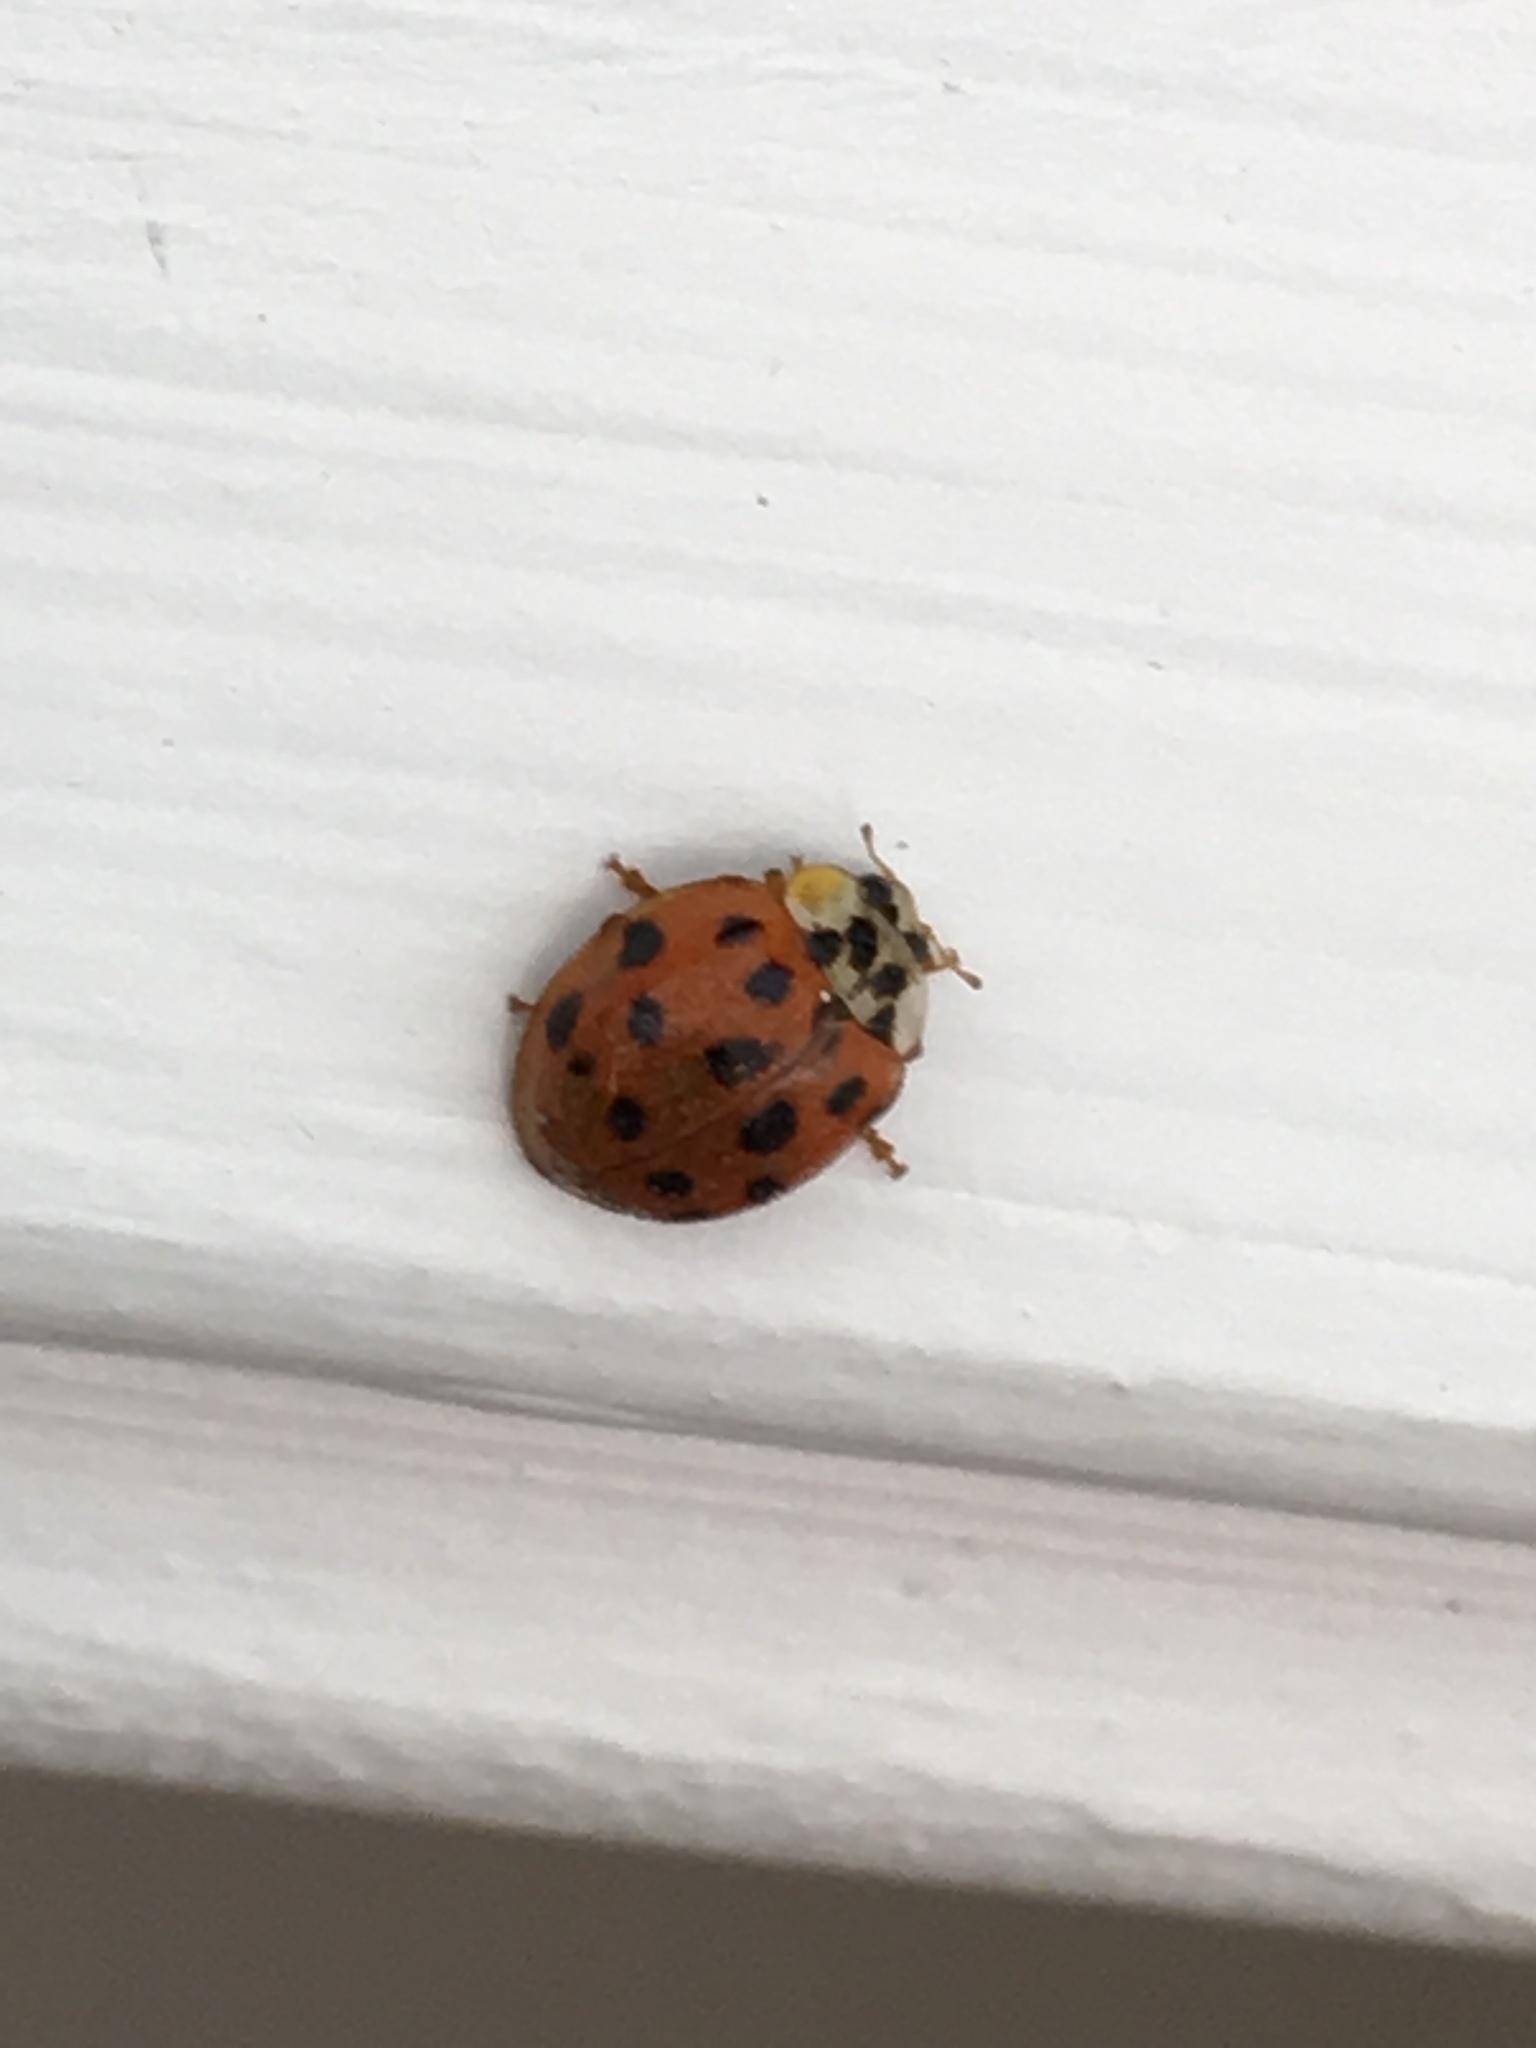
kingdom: Animalia
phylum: Arthropoda
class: Insecta
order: Coleoptera
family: Coccinellidae
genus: Harmonia
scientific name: Harmonia axyridis
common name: Harlequin ladybird
